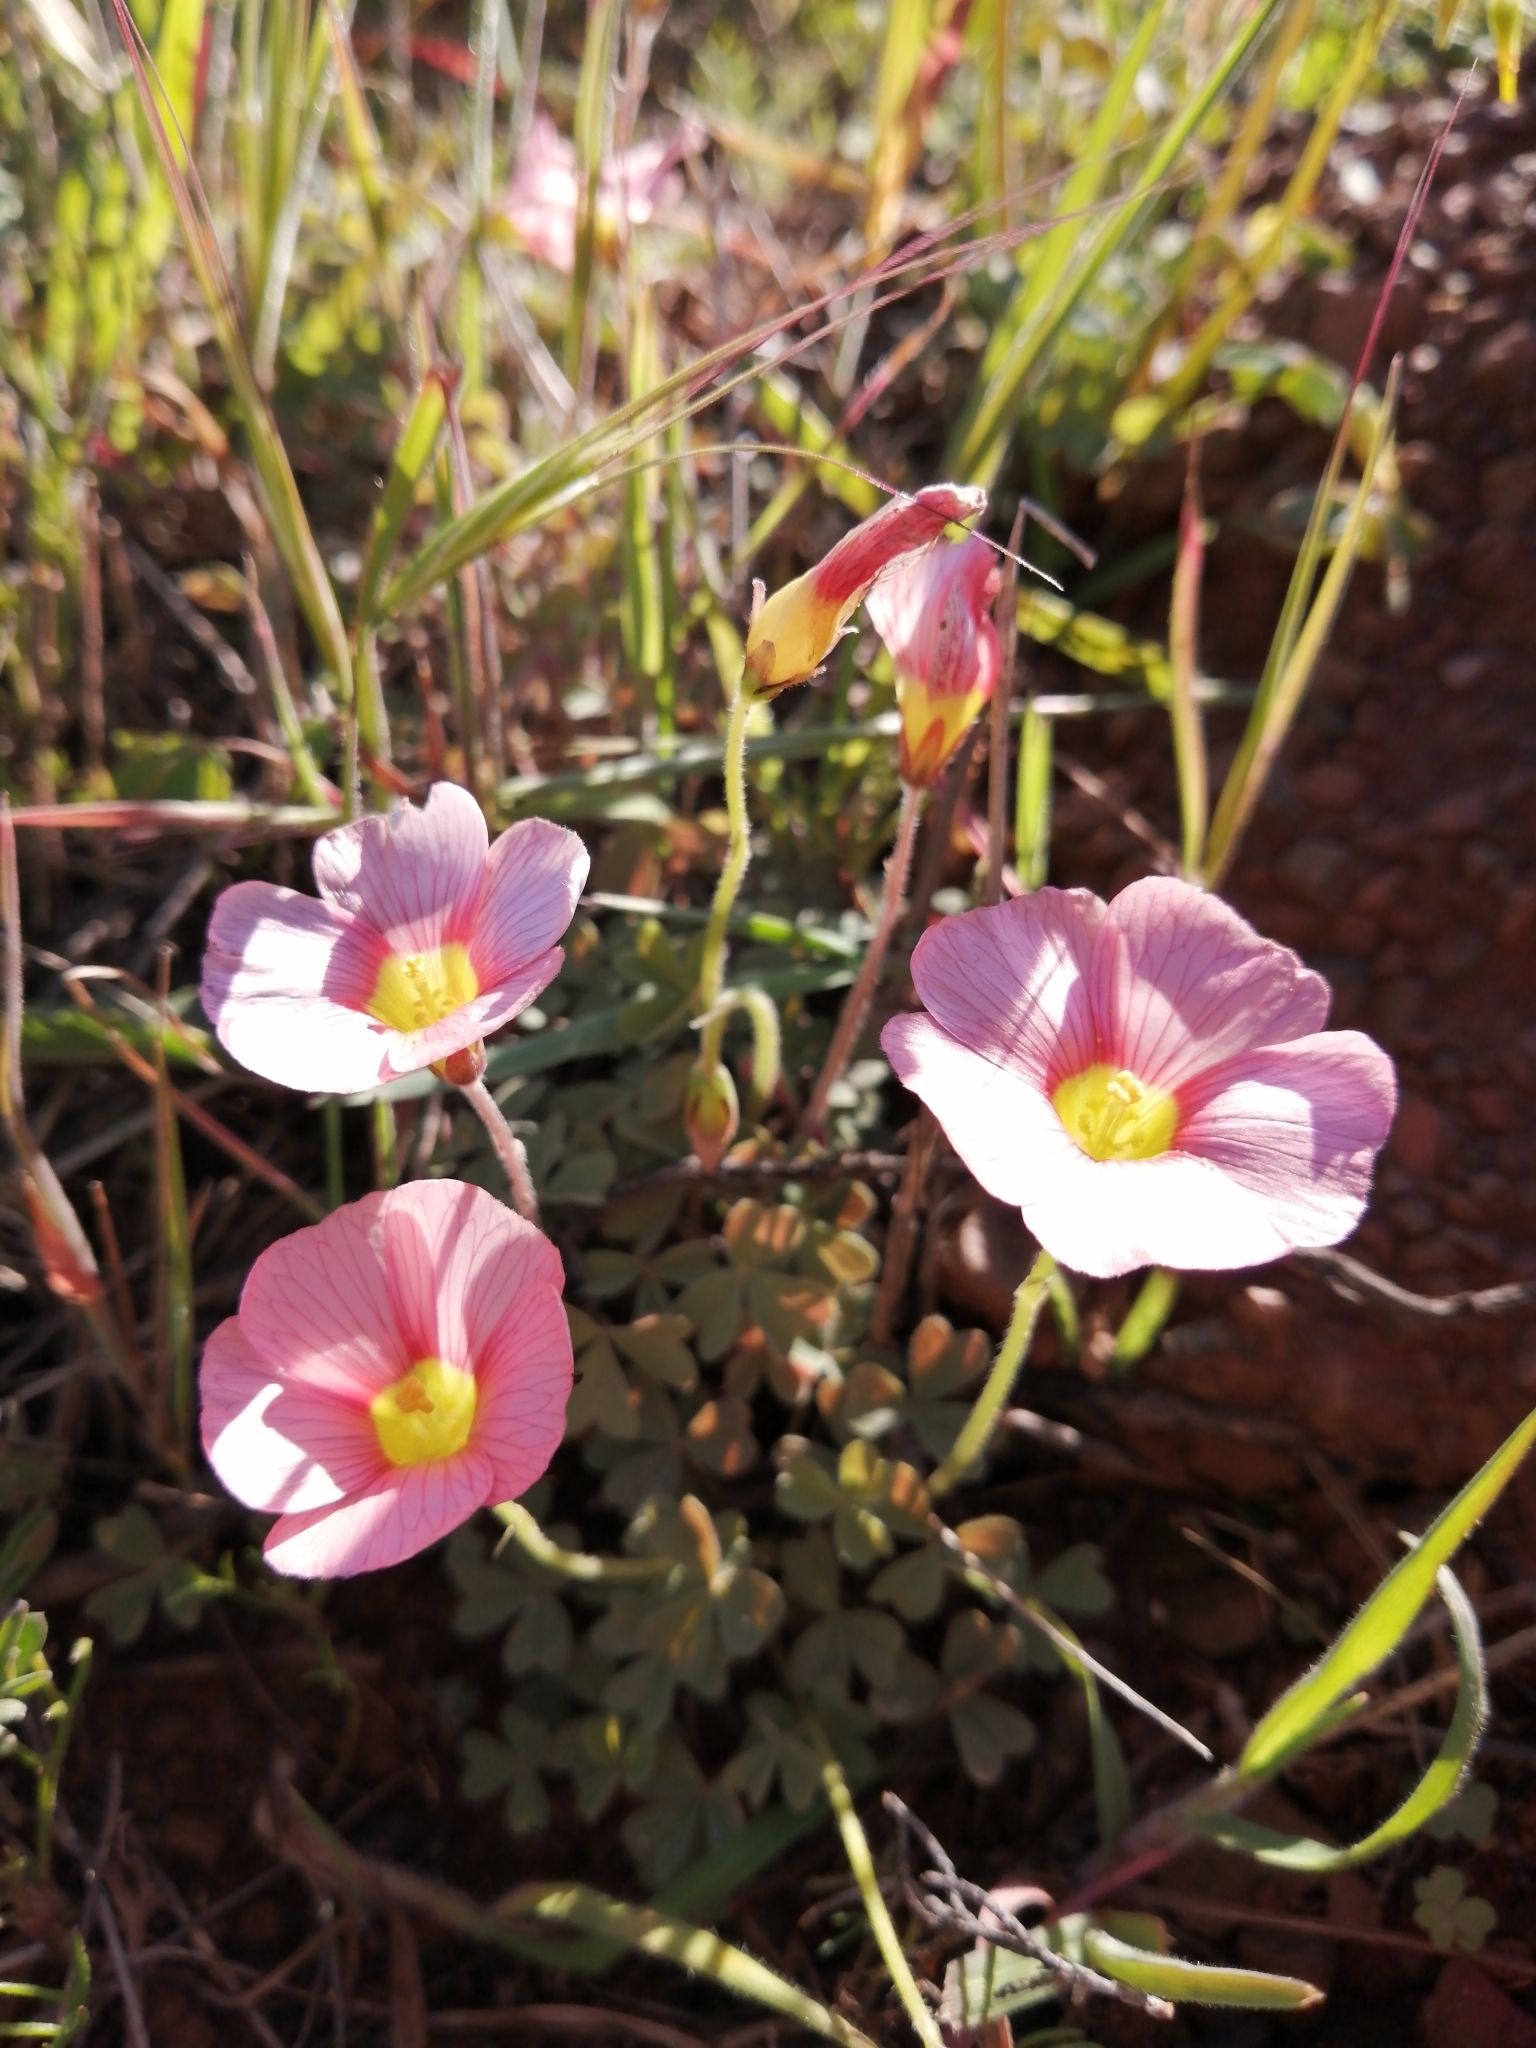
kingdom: Plantae
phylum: Tracheophyta
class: Magnoliopsida
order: Oxalidales
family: Oxalidaceae
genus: Oxalis
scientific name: Oxalis obtusa
